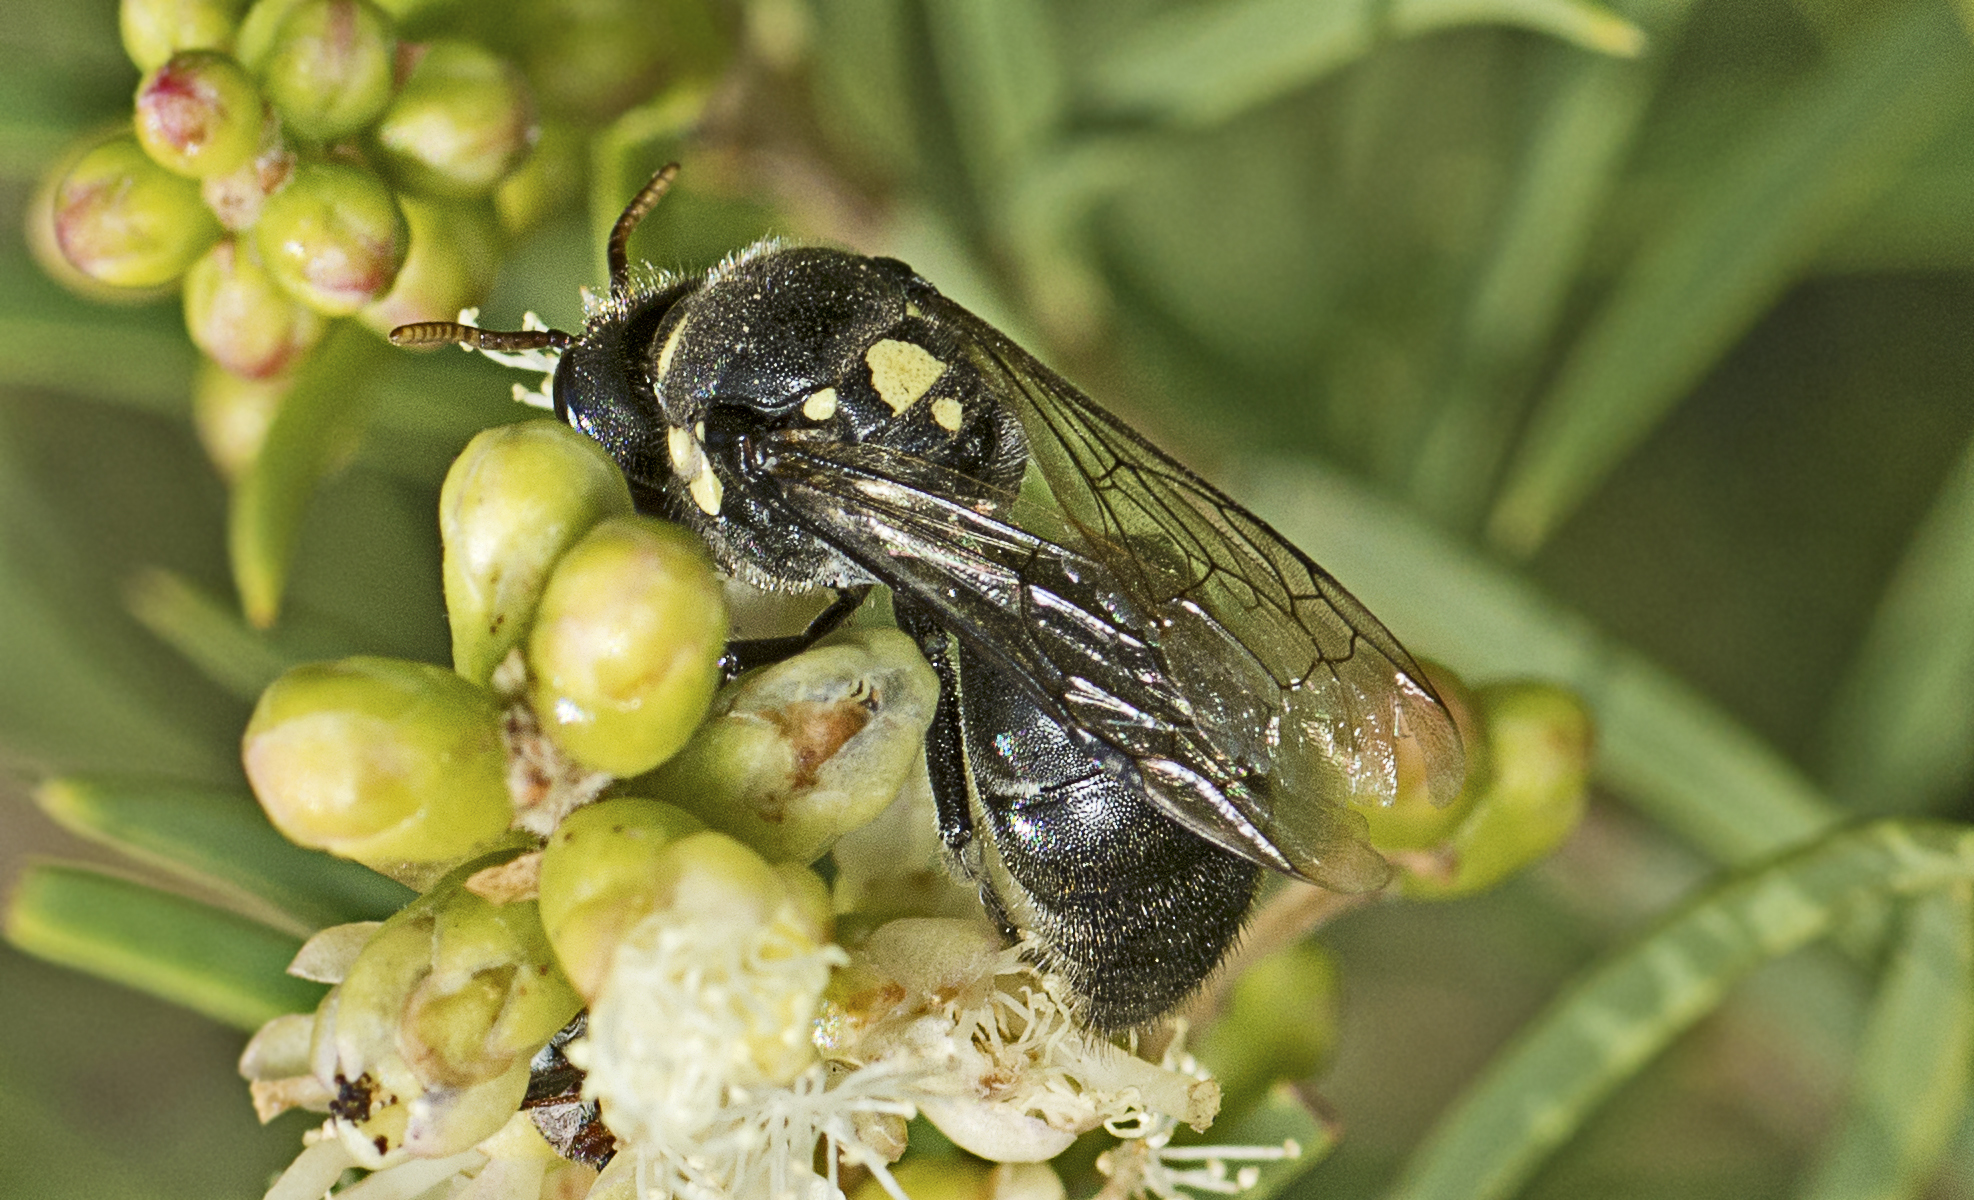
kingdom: Animalia
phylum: Arthropoda
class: Insecta
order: Hymenoptera
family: Colletidae
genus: Meroglossa
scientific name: Meroglossa impressifrons
